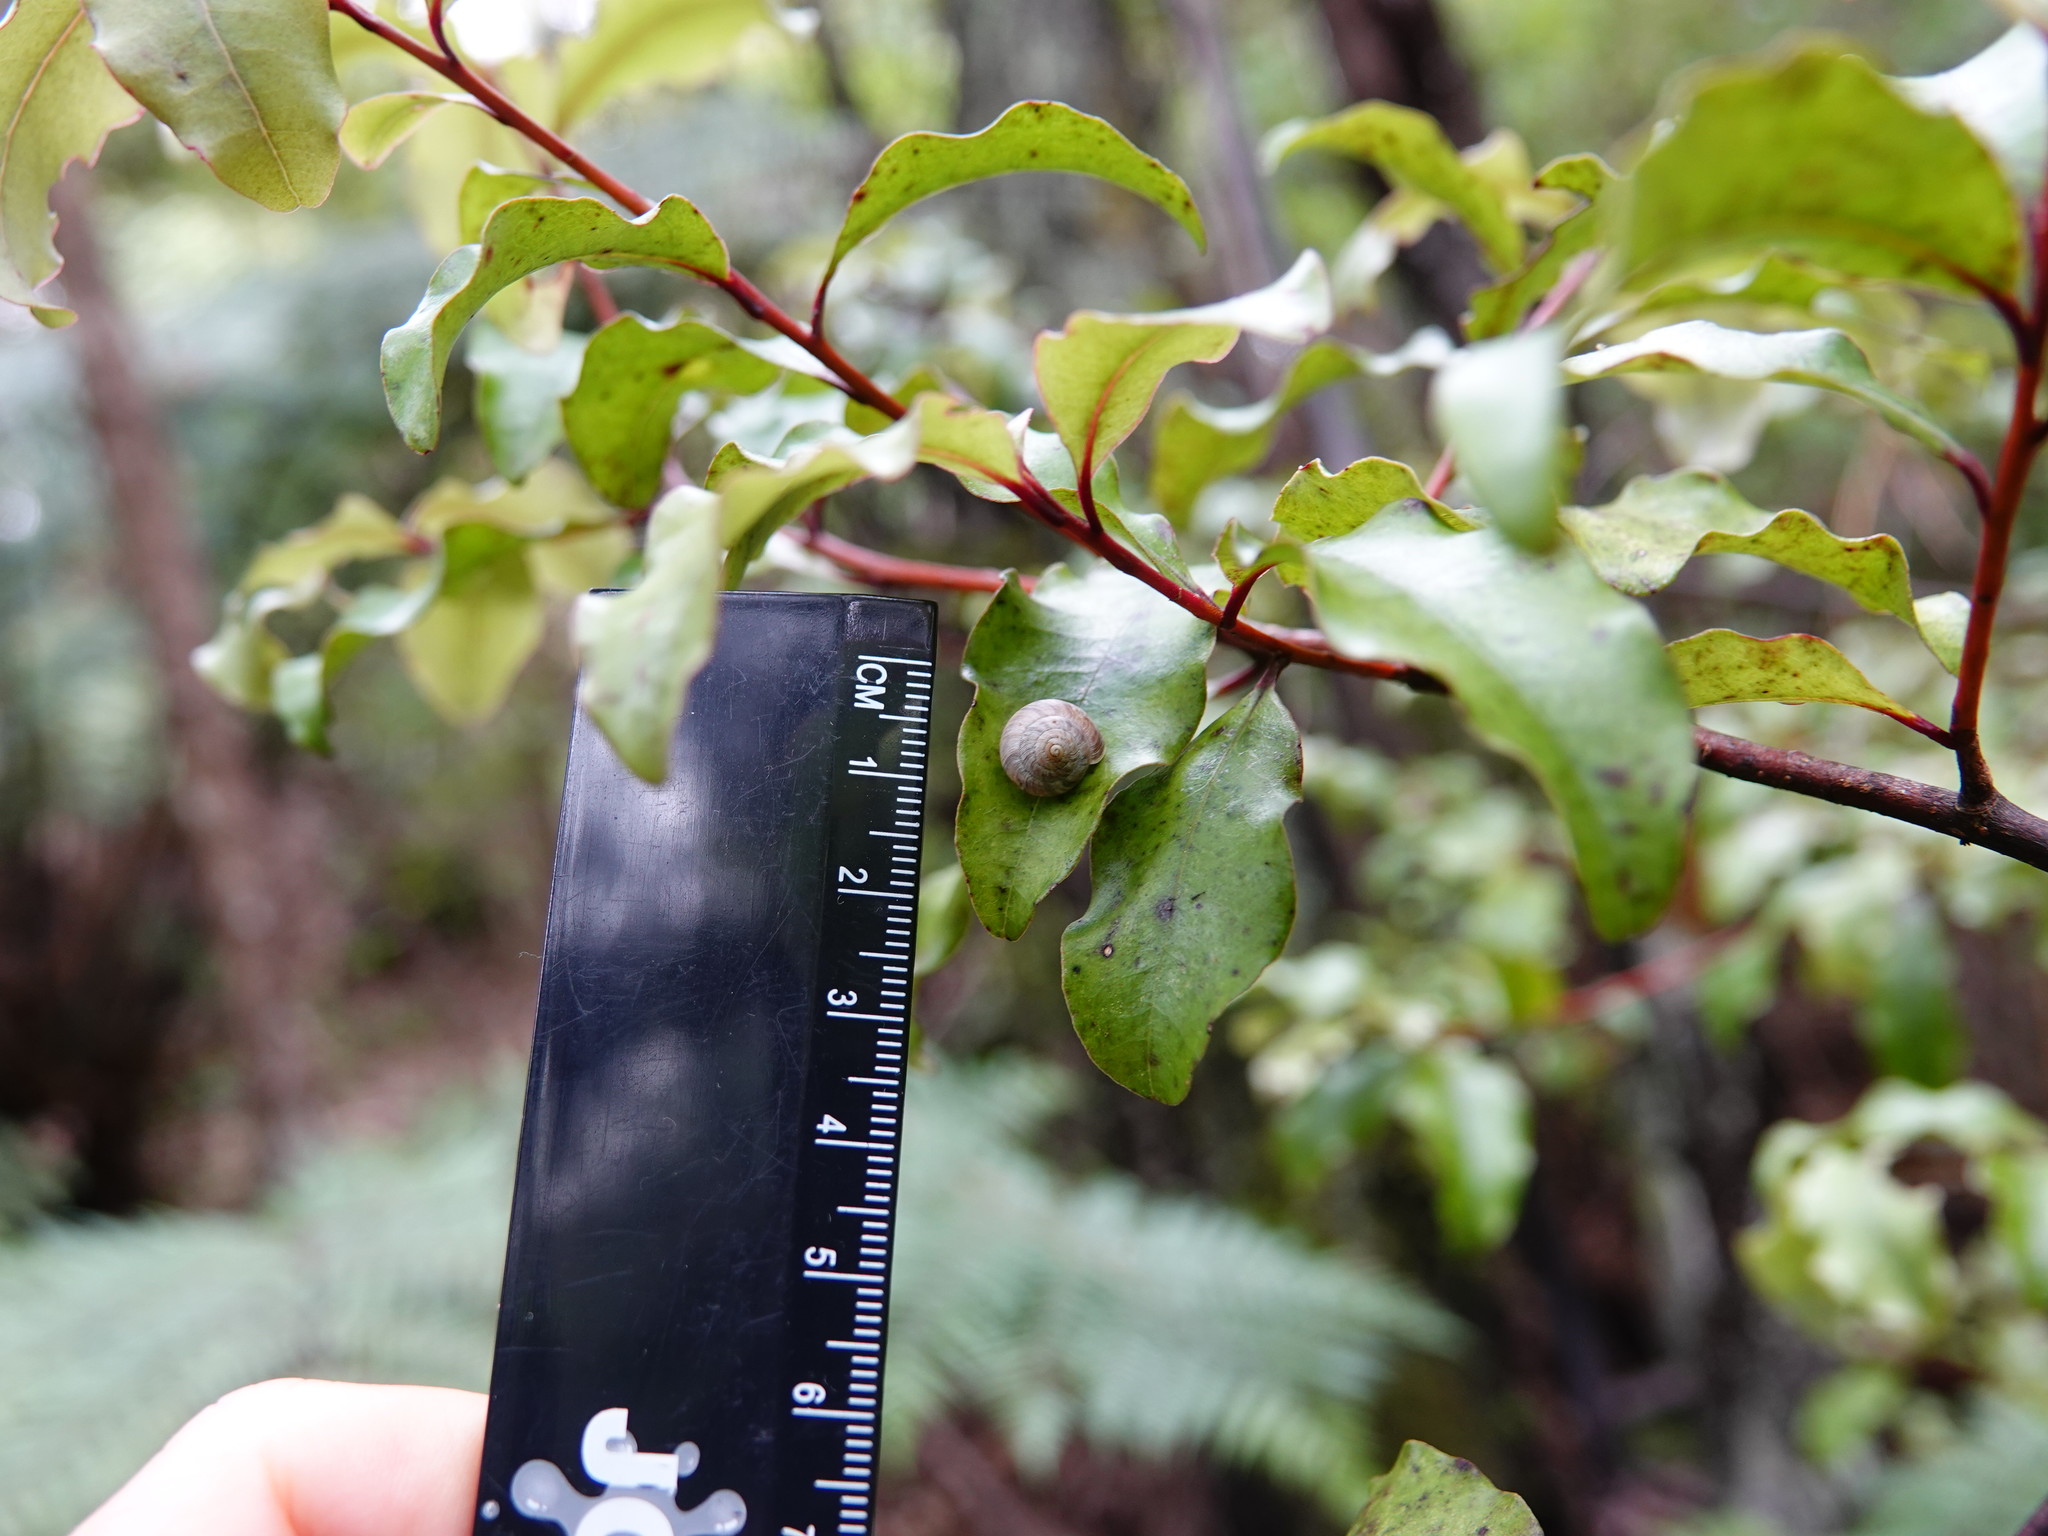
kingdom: Animalia
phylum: Mollusca
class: Gastropoda
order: Stylommatophora
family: Charopidae
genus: Serpho
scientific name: Serpho
